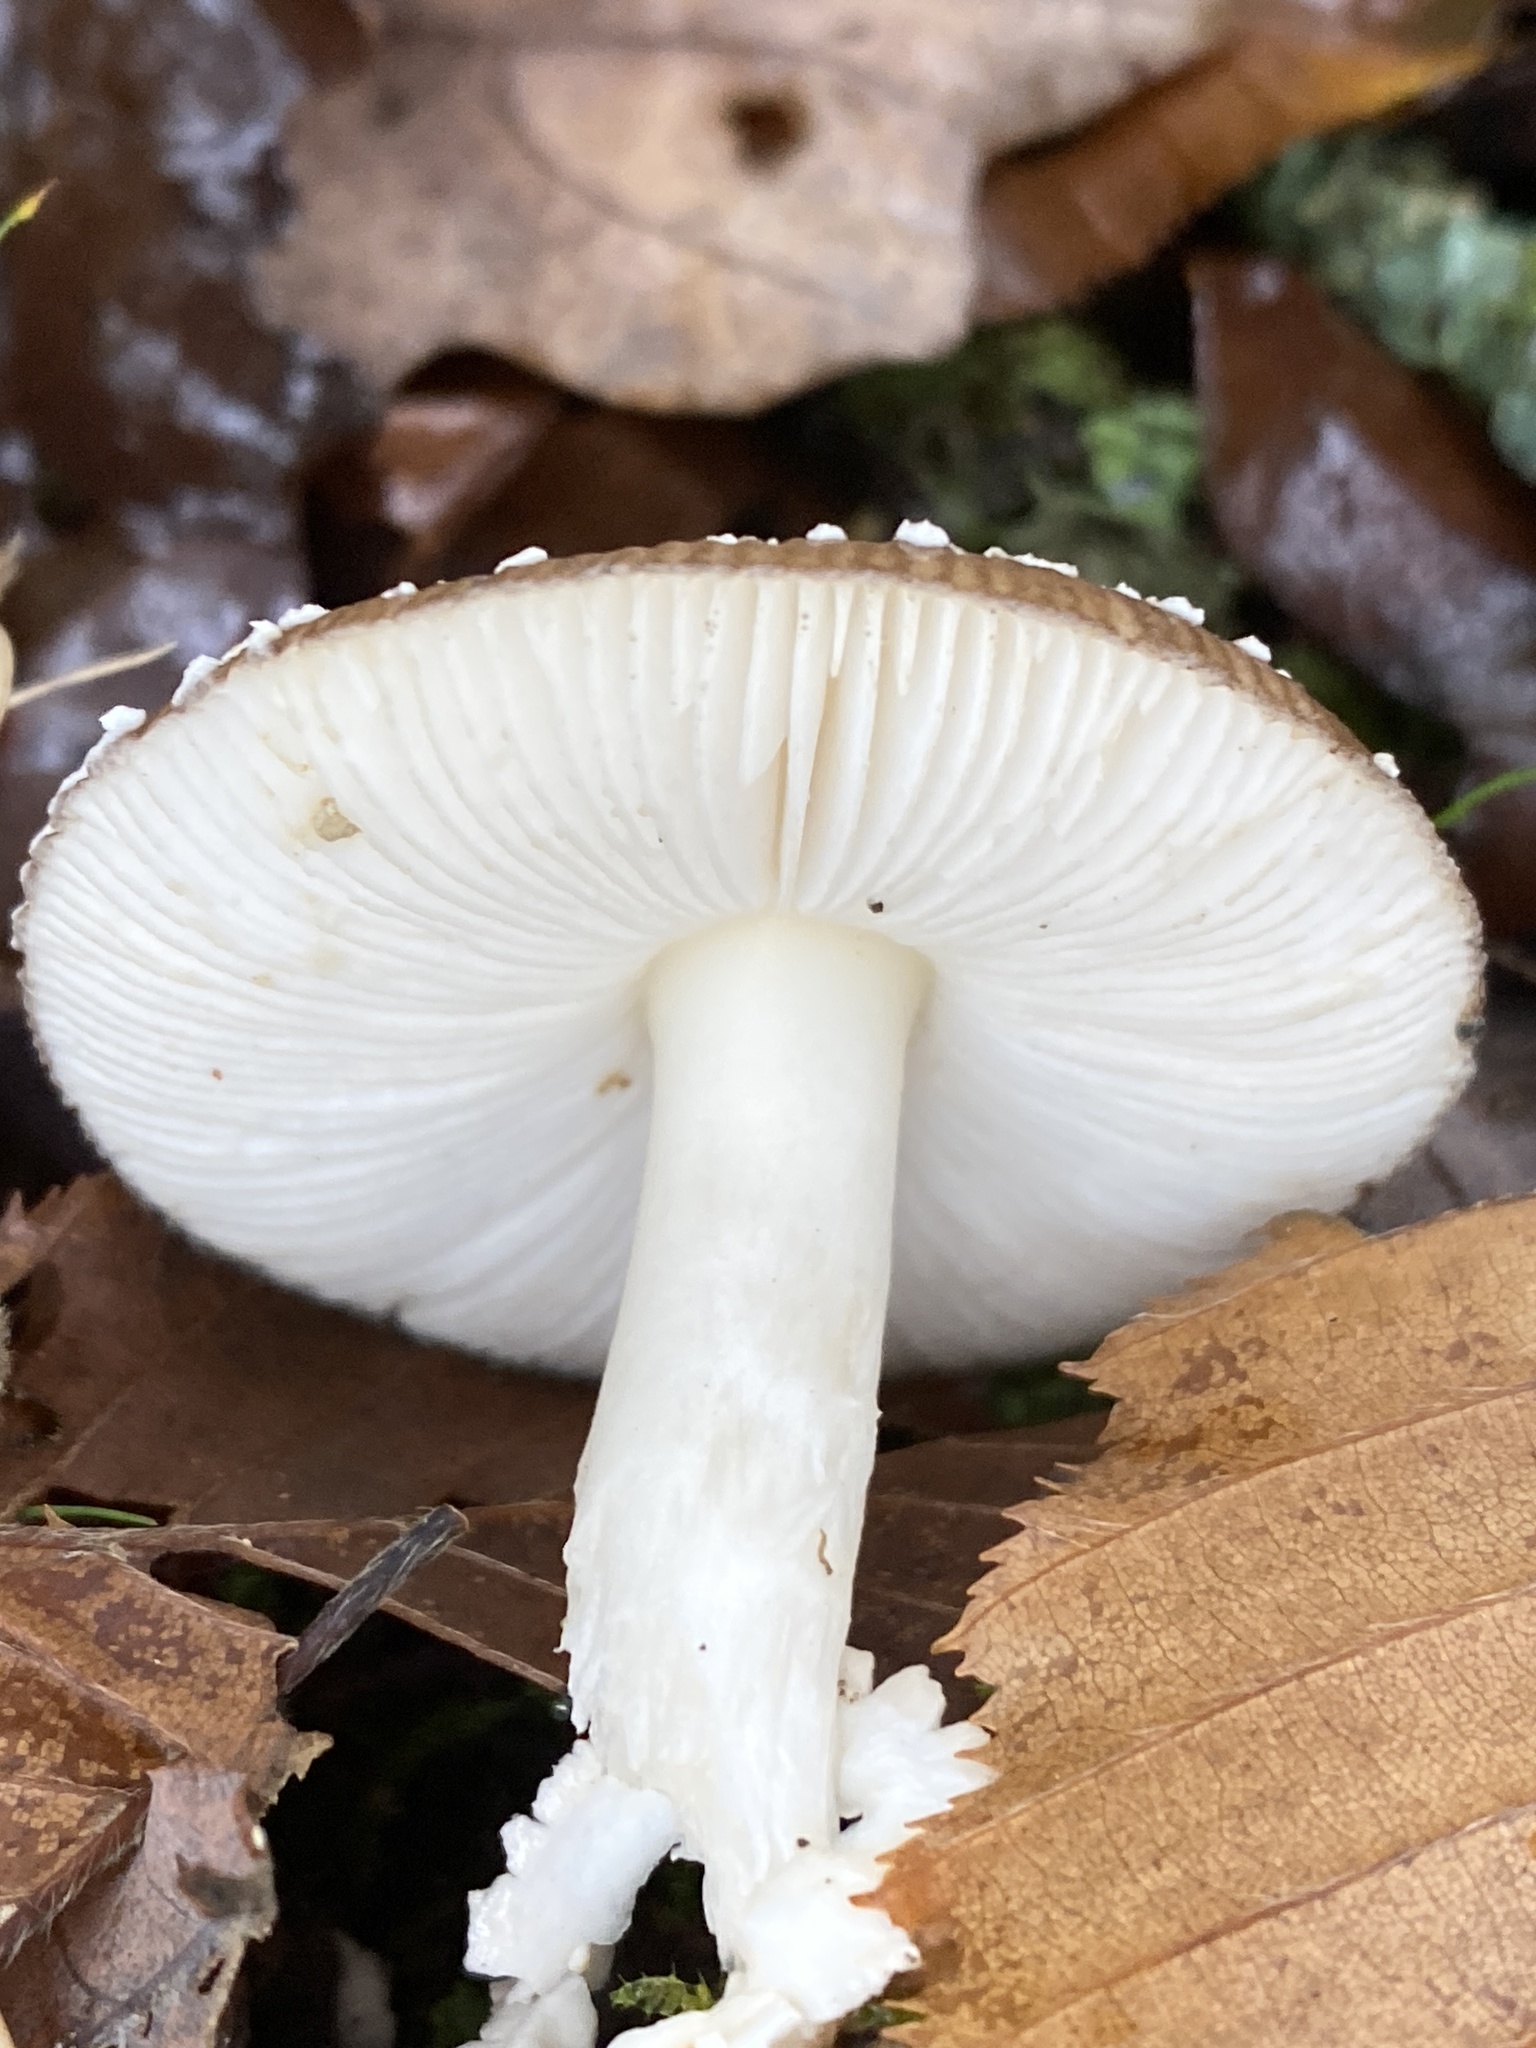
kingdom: Fungi
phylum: Basidiomycota
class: Agaricomycetes
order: Agaricales
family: Amanitaceae
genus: Amanita
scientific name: Amanita pantherina
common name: Panthercap
